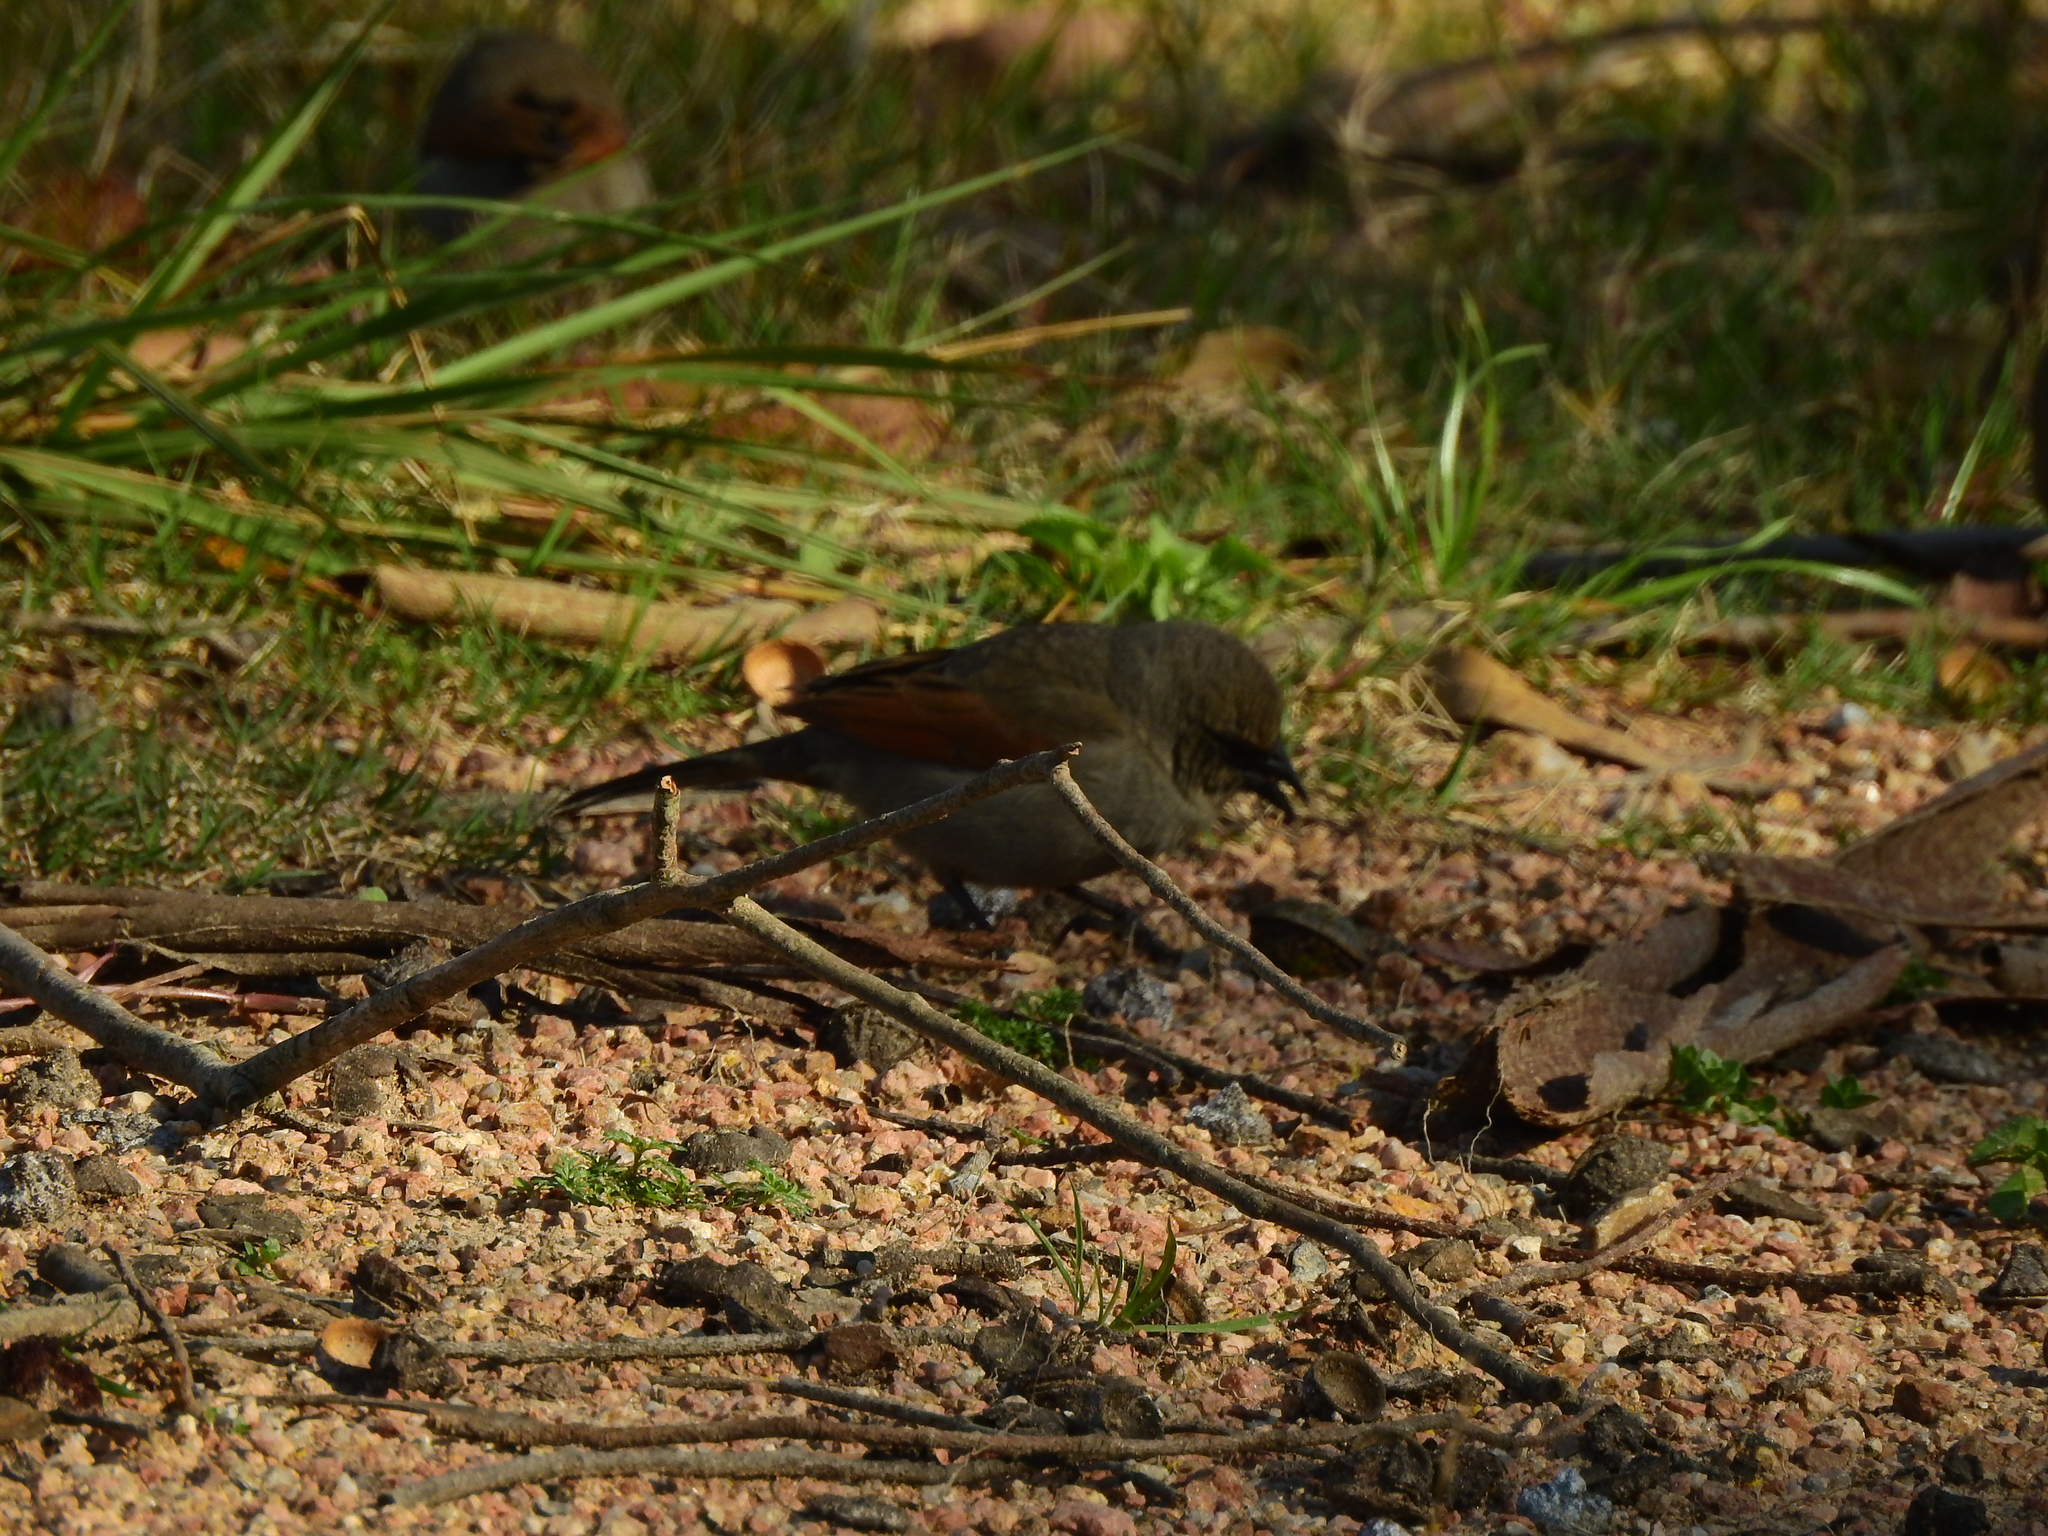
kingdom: Animalia
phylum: Chordata
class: Aves
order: Passeriformes
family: Icteridae
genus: Agelaioides
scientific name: Agelaioides badius
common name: Baywing
